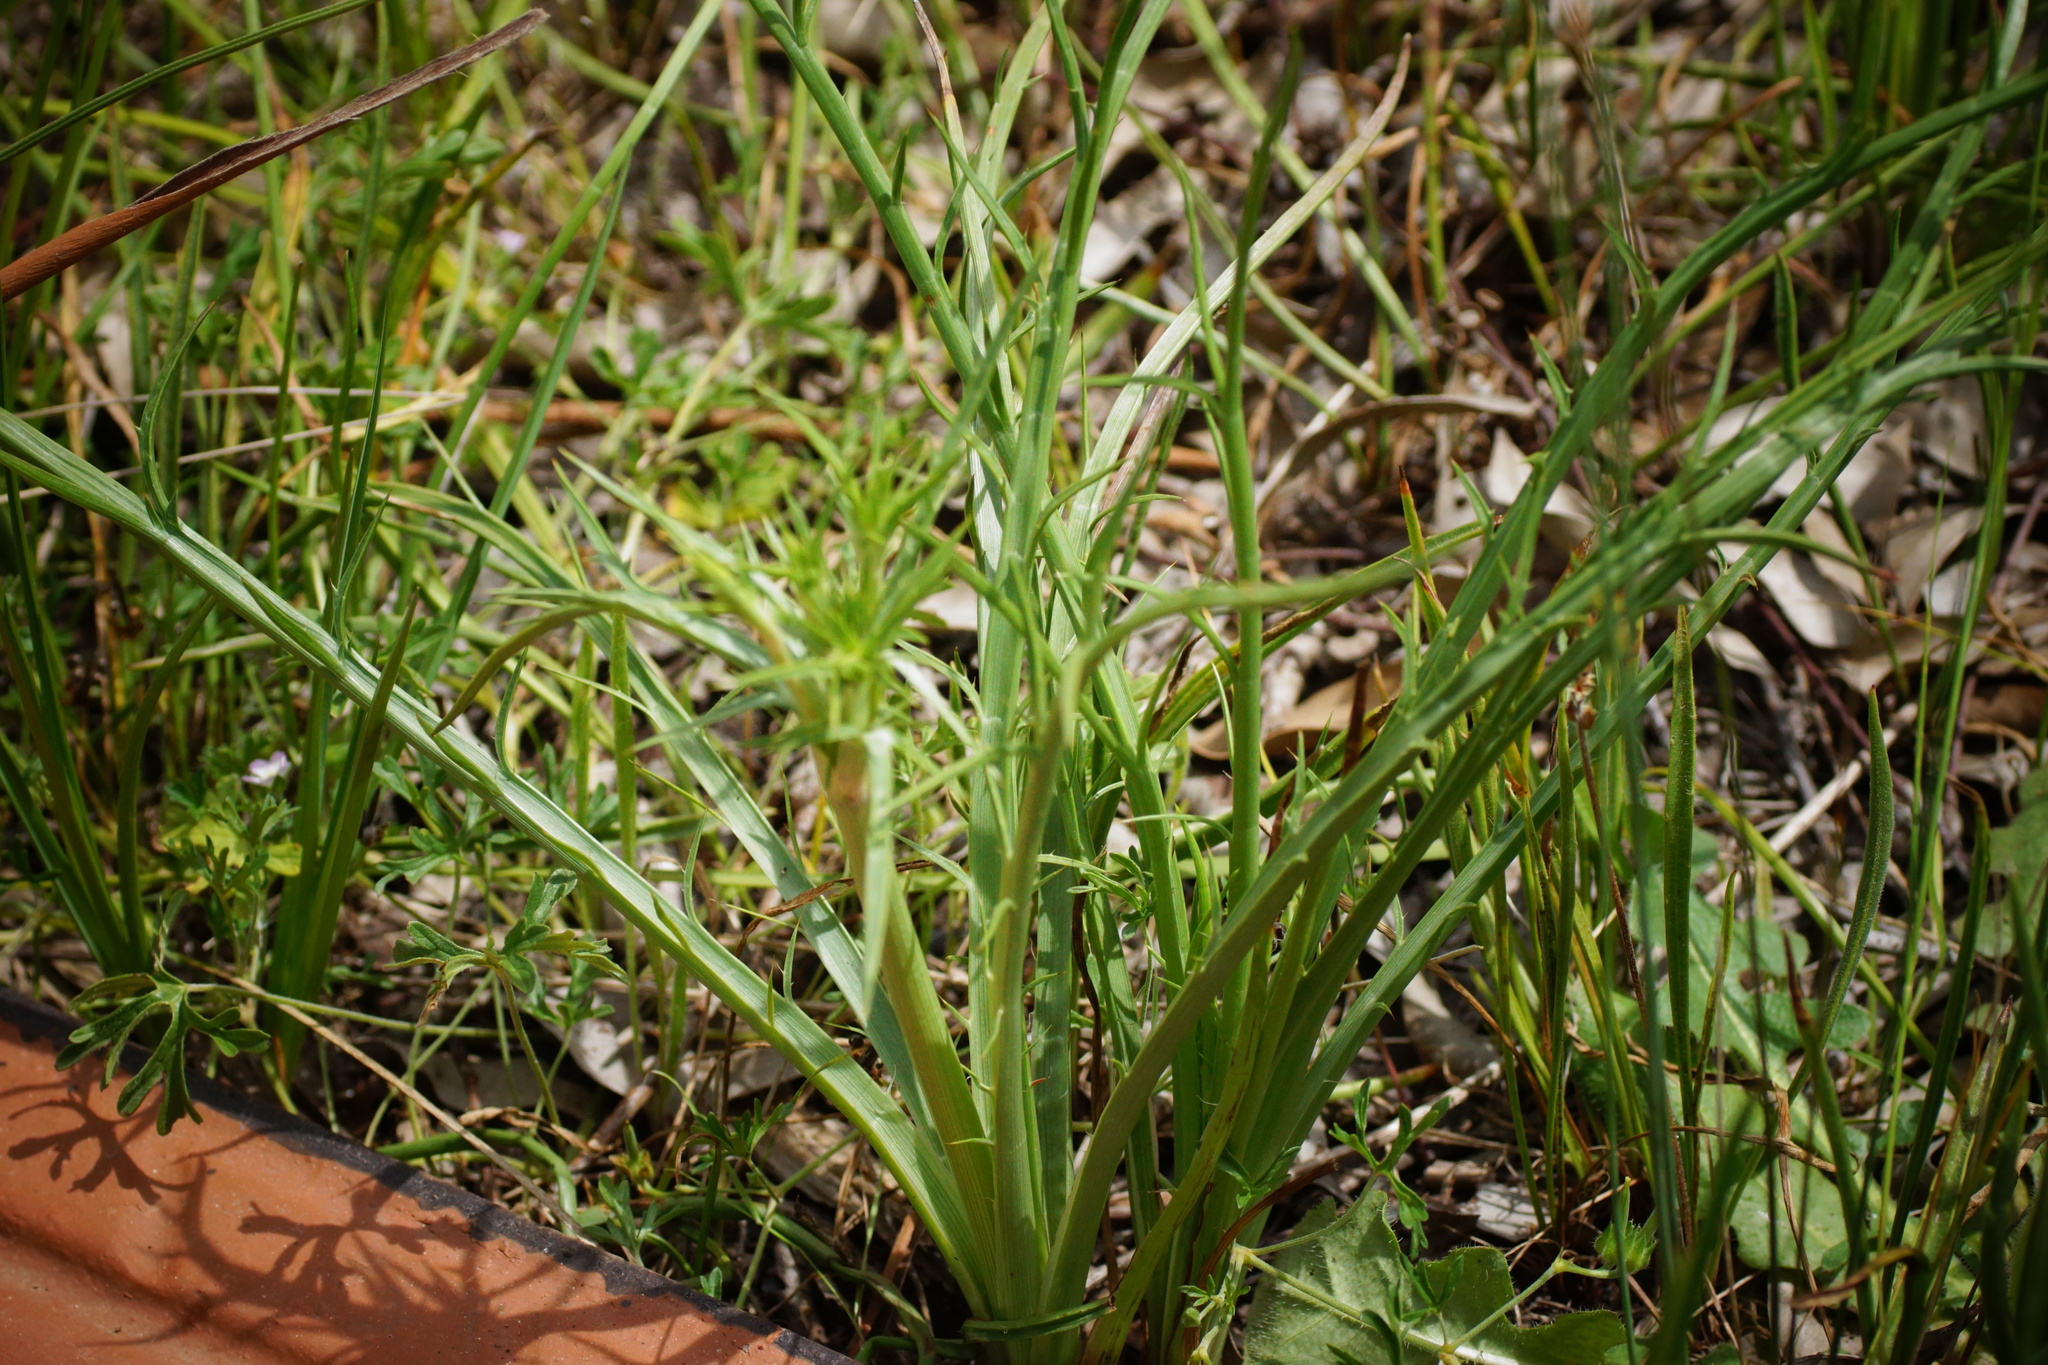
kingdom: Plantae
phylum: Tracheophyta
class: Magnoliopsida
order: Apiales
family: Apiaceae
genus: Eryngium
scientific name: Eryngium ovinum
